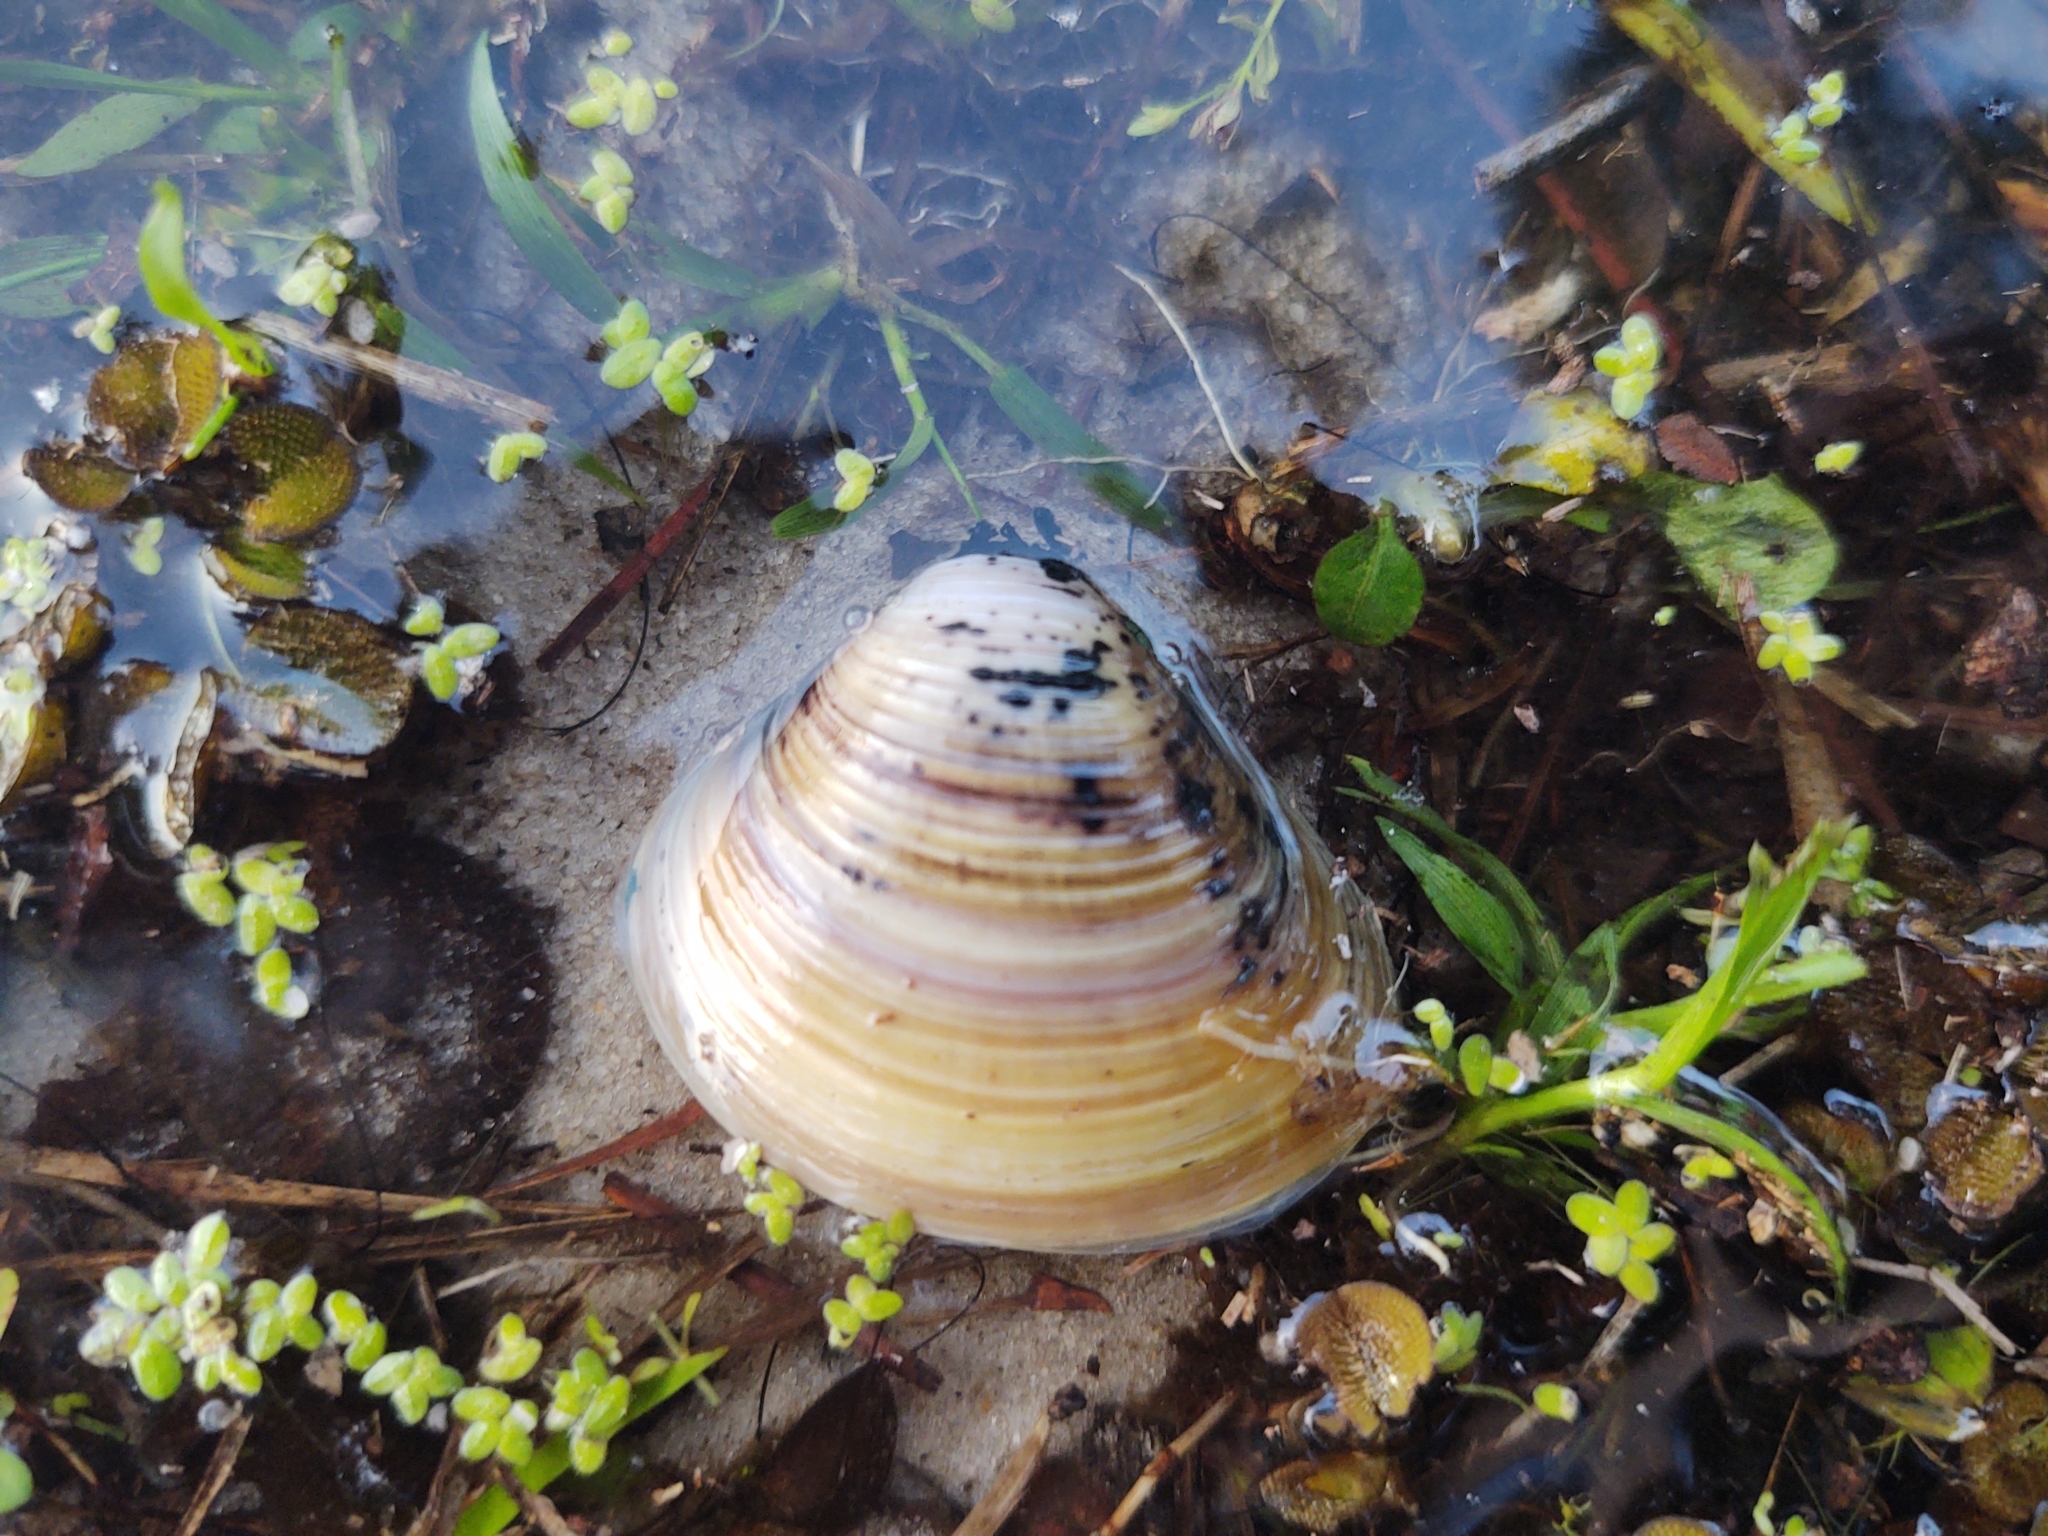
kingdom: Animalia
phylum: Mollusca
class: Bivalvia
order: Venerida
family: Cyrenidae
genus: Corbicula
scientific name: Corbicula fluminea
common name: Asian clam
